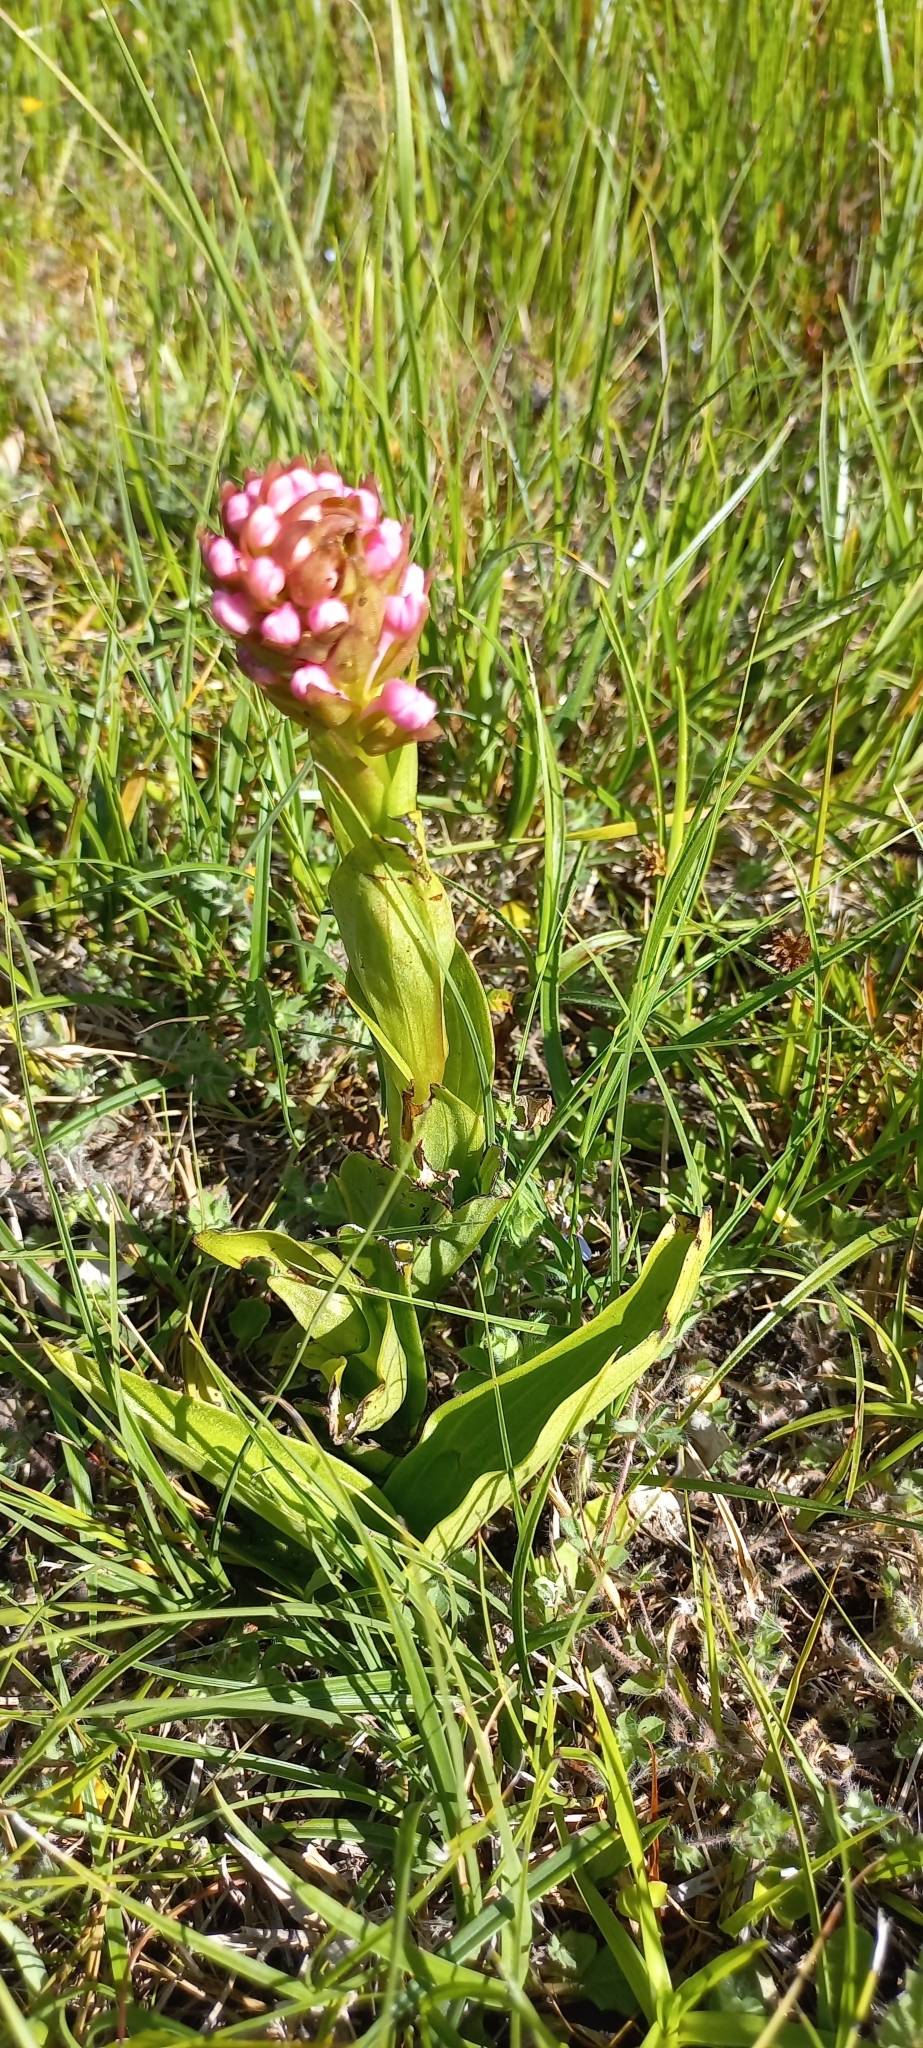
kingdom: Plantae
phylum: Tracheophyta
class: Liliopsida
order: Asparagales
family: Orchidaceae
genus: Satyrium
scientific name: Satyrium hallackii
